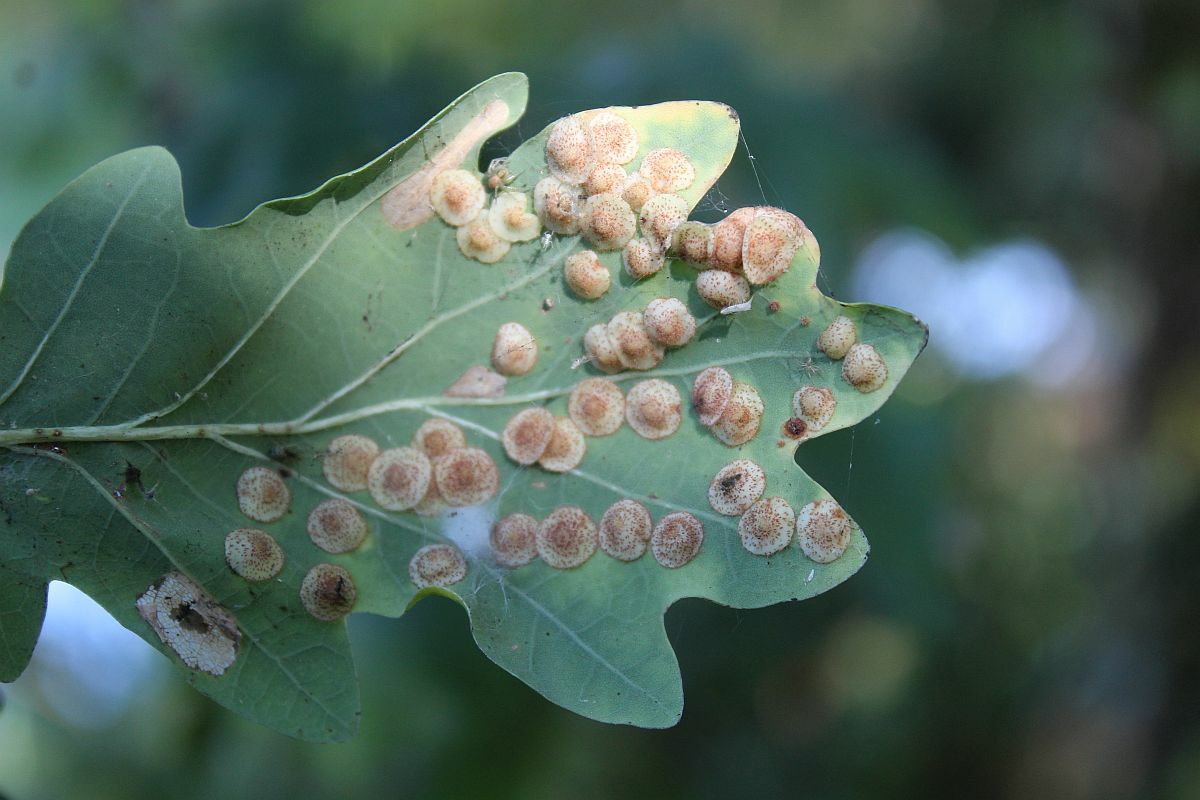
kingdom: Animalia
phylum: Arthropoda
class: Insecta
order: Hymenoptera
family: Cynipidae
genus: Neuroterus
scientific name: Neuroterus quercusbaccarum
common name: Common spangle gall
